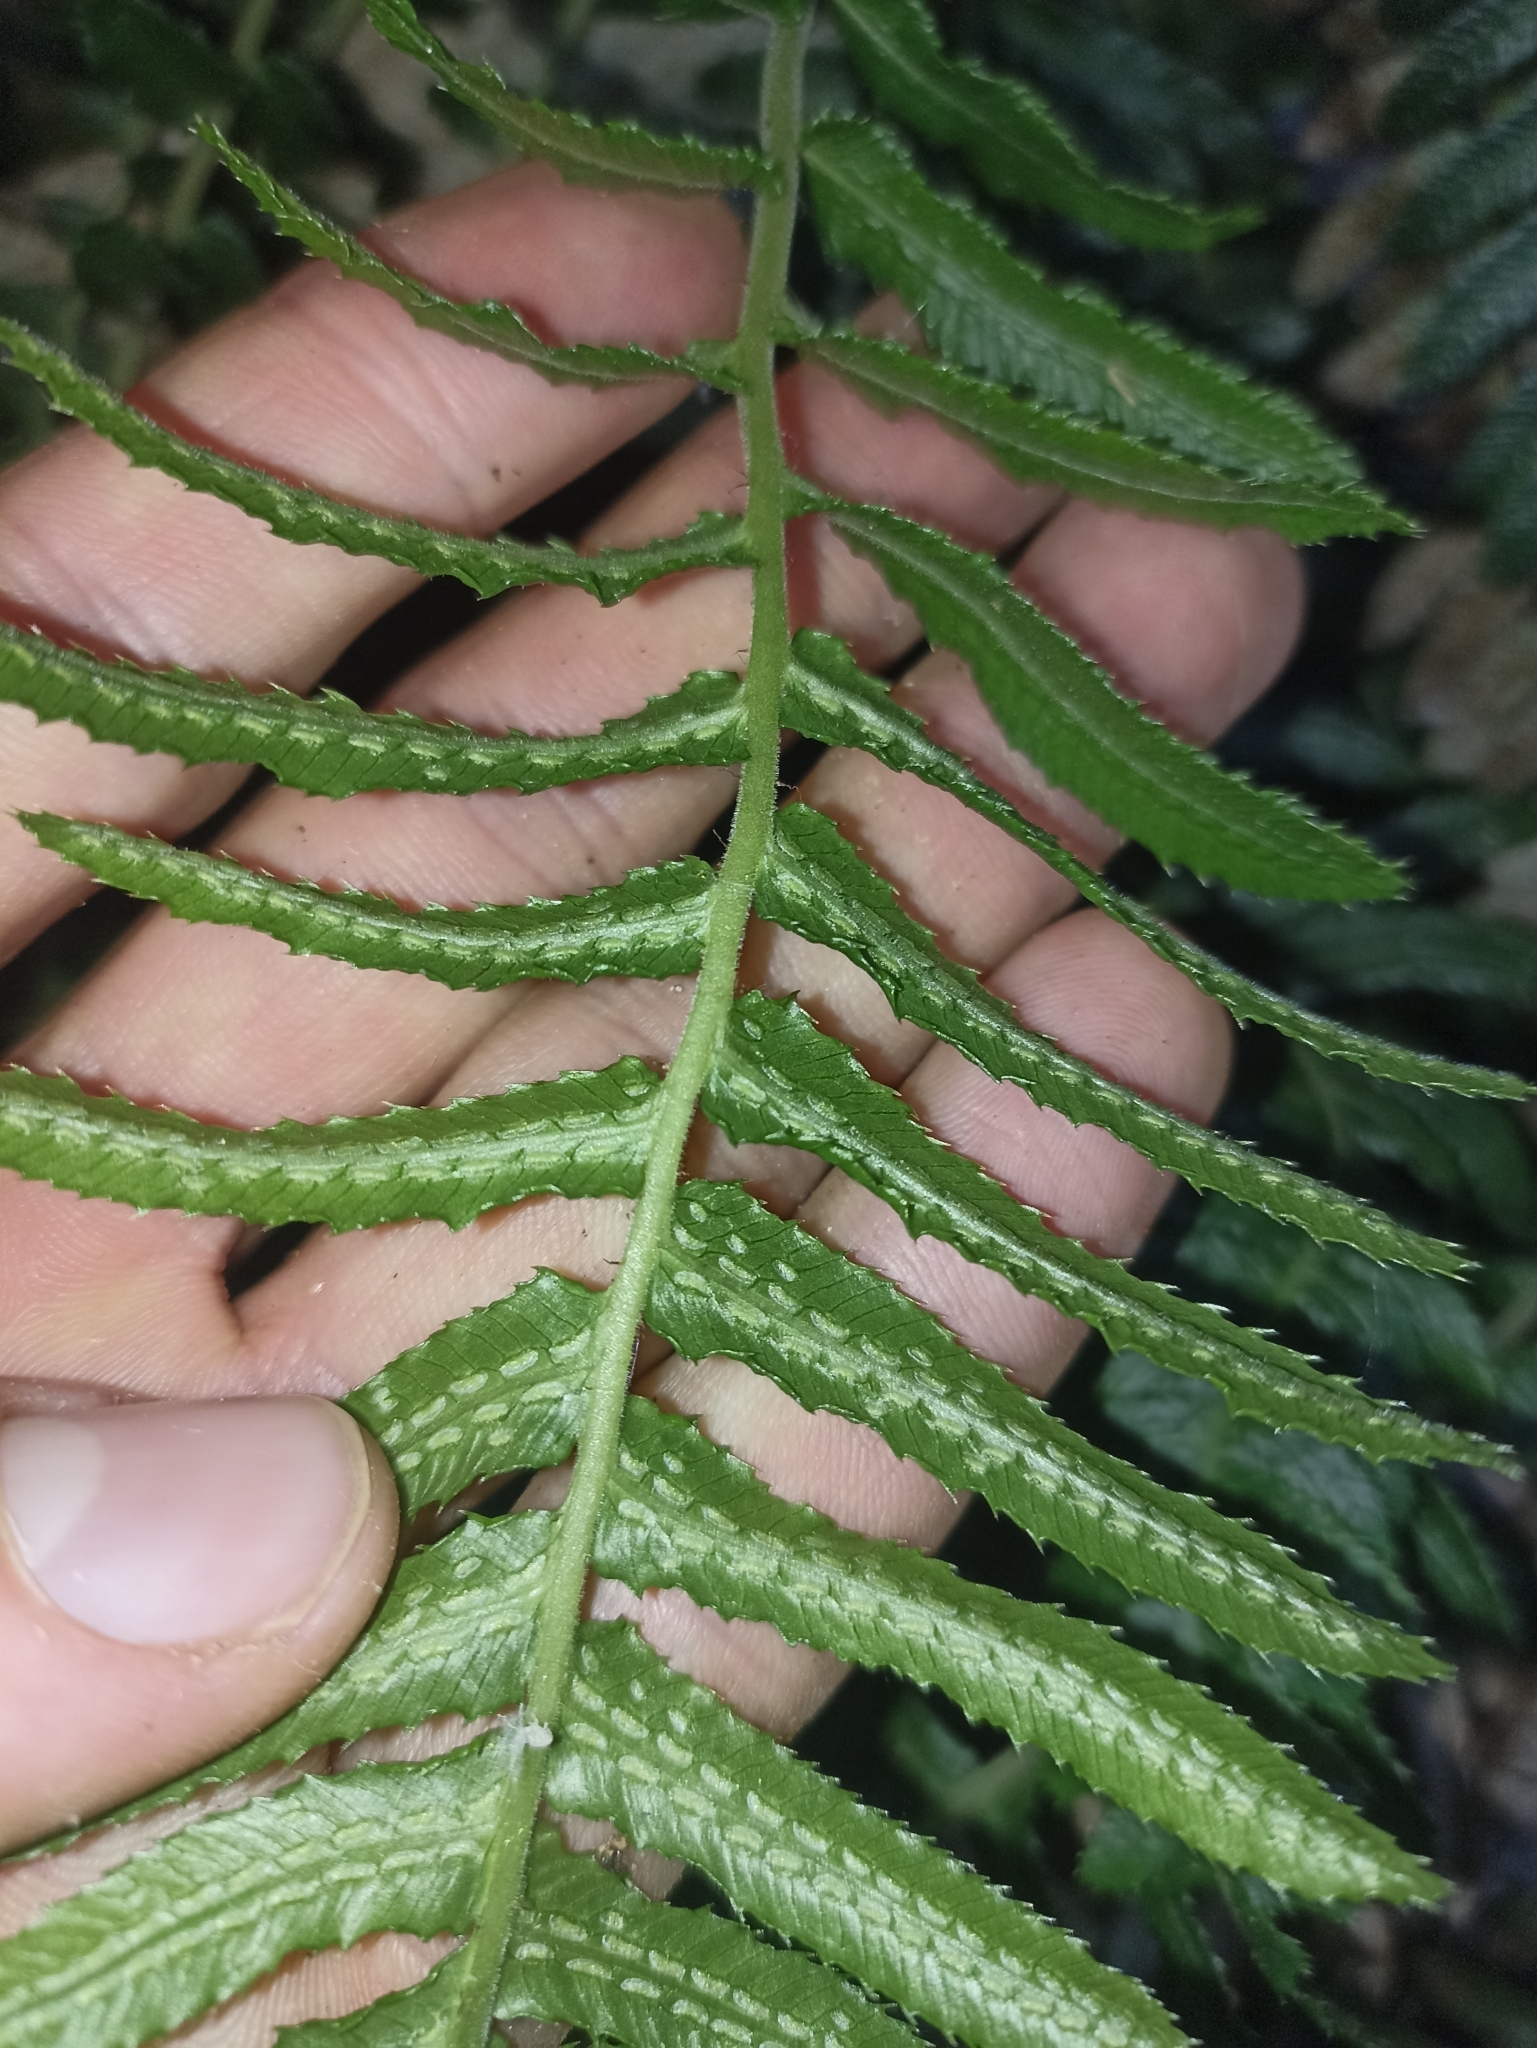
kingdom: Plantae
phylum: Tracheophyta
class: Polypodiopsida
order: Polypodiales
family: Blechnaceae
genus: Doodia
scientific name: Doodia australis
